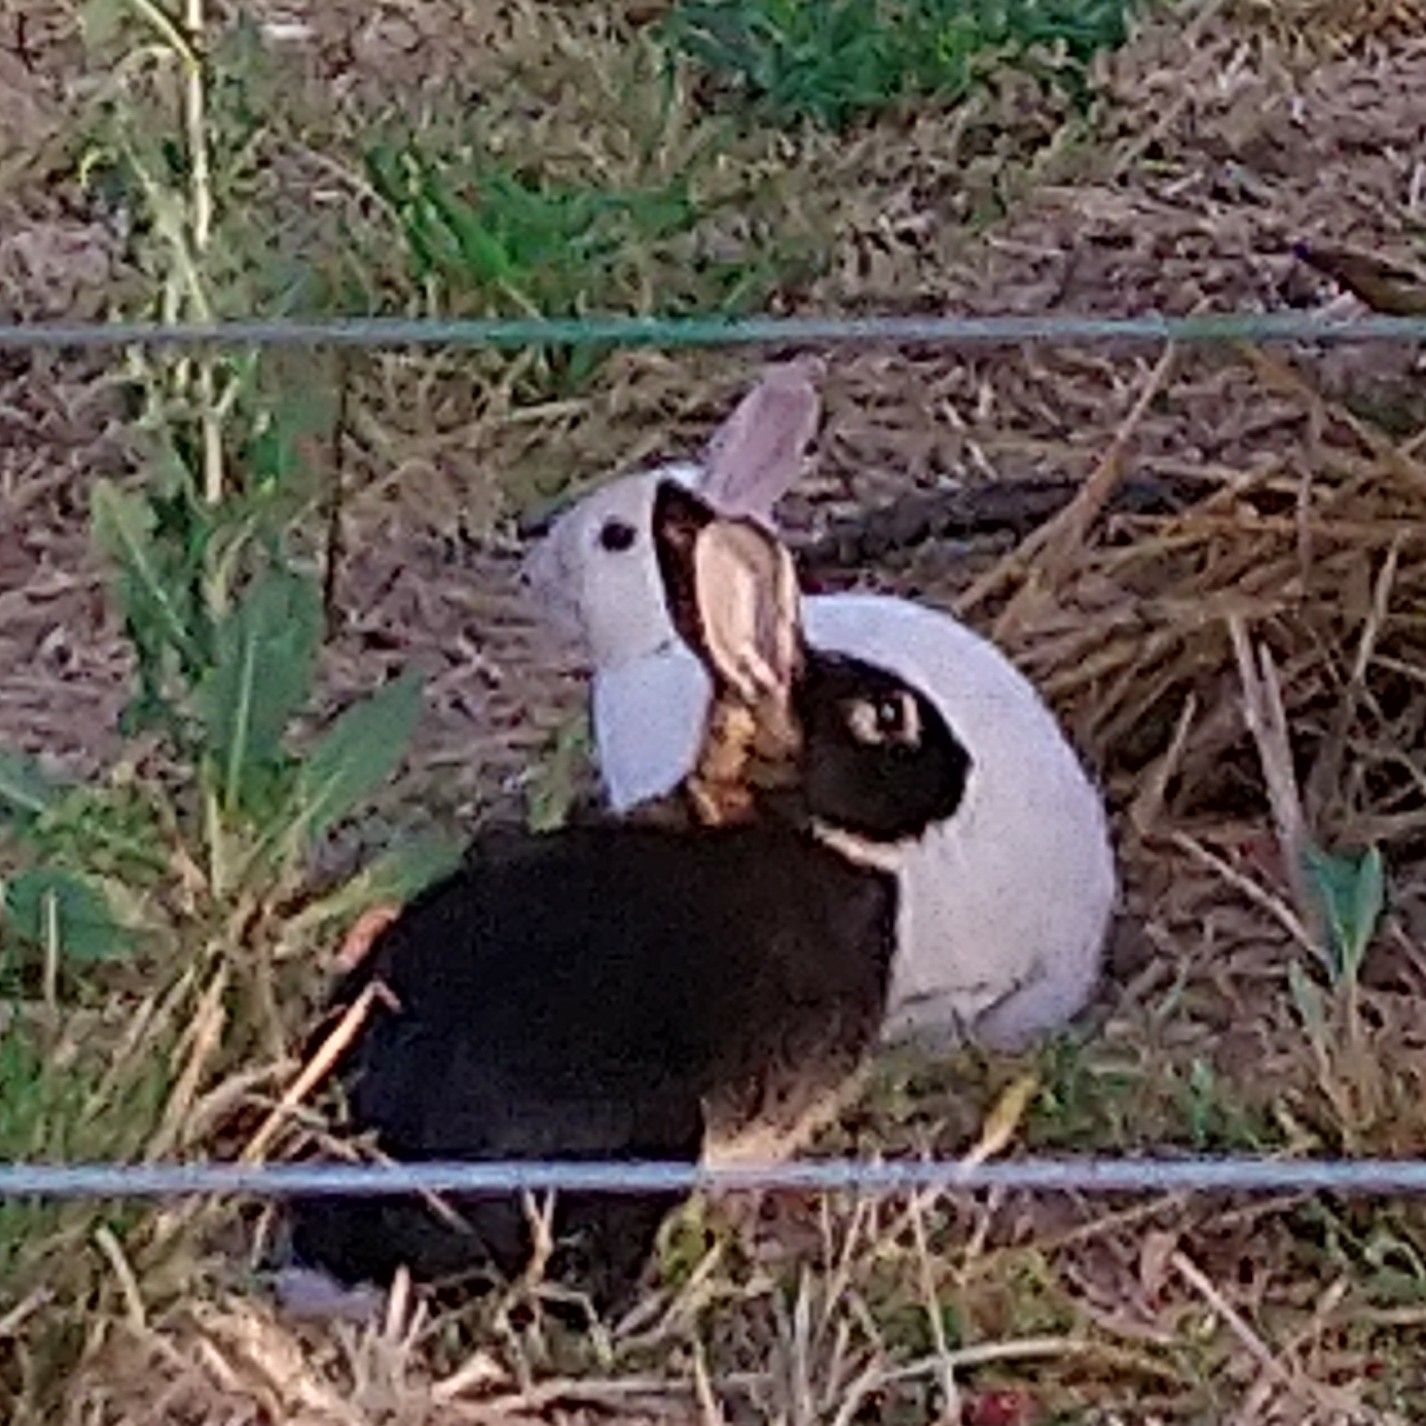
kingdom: Animalia
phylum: Chordata
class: Mammalia
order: Lagomorpha
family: Leporidae
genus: Oryctolagus
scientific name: Oryctolagus cuniculus
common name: European rabbit
